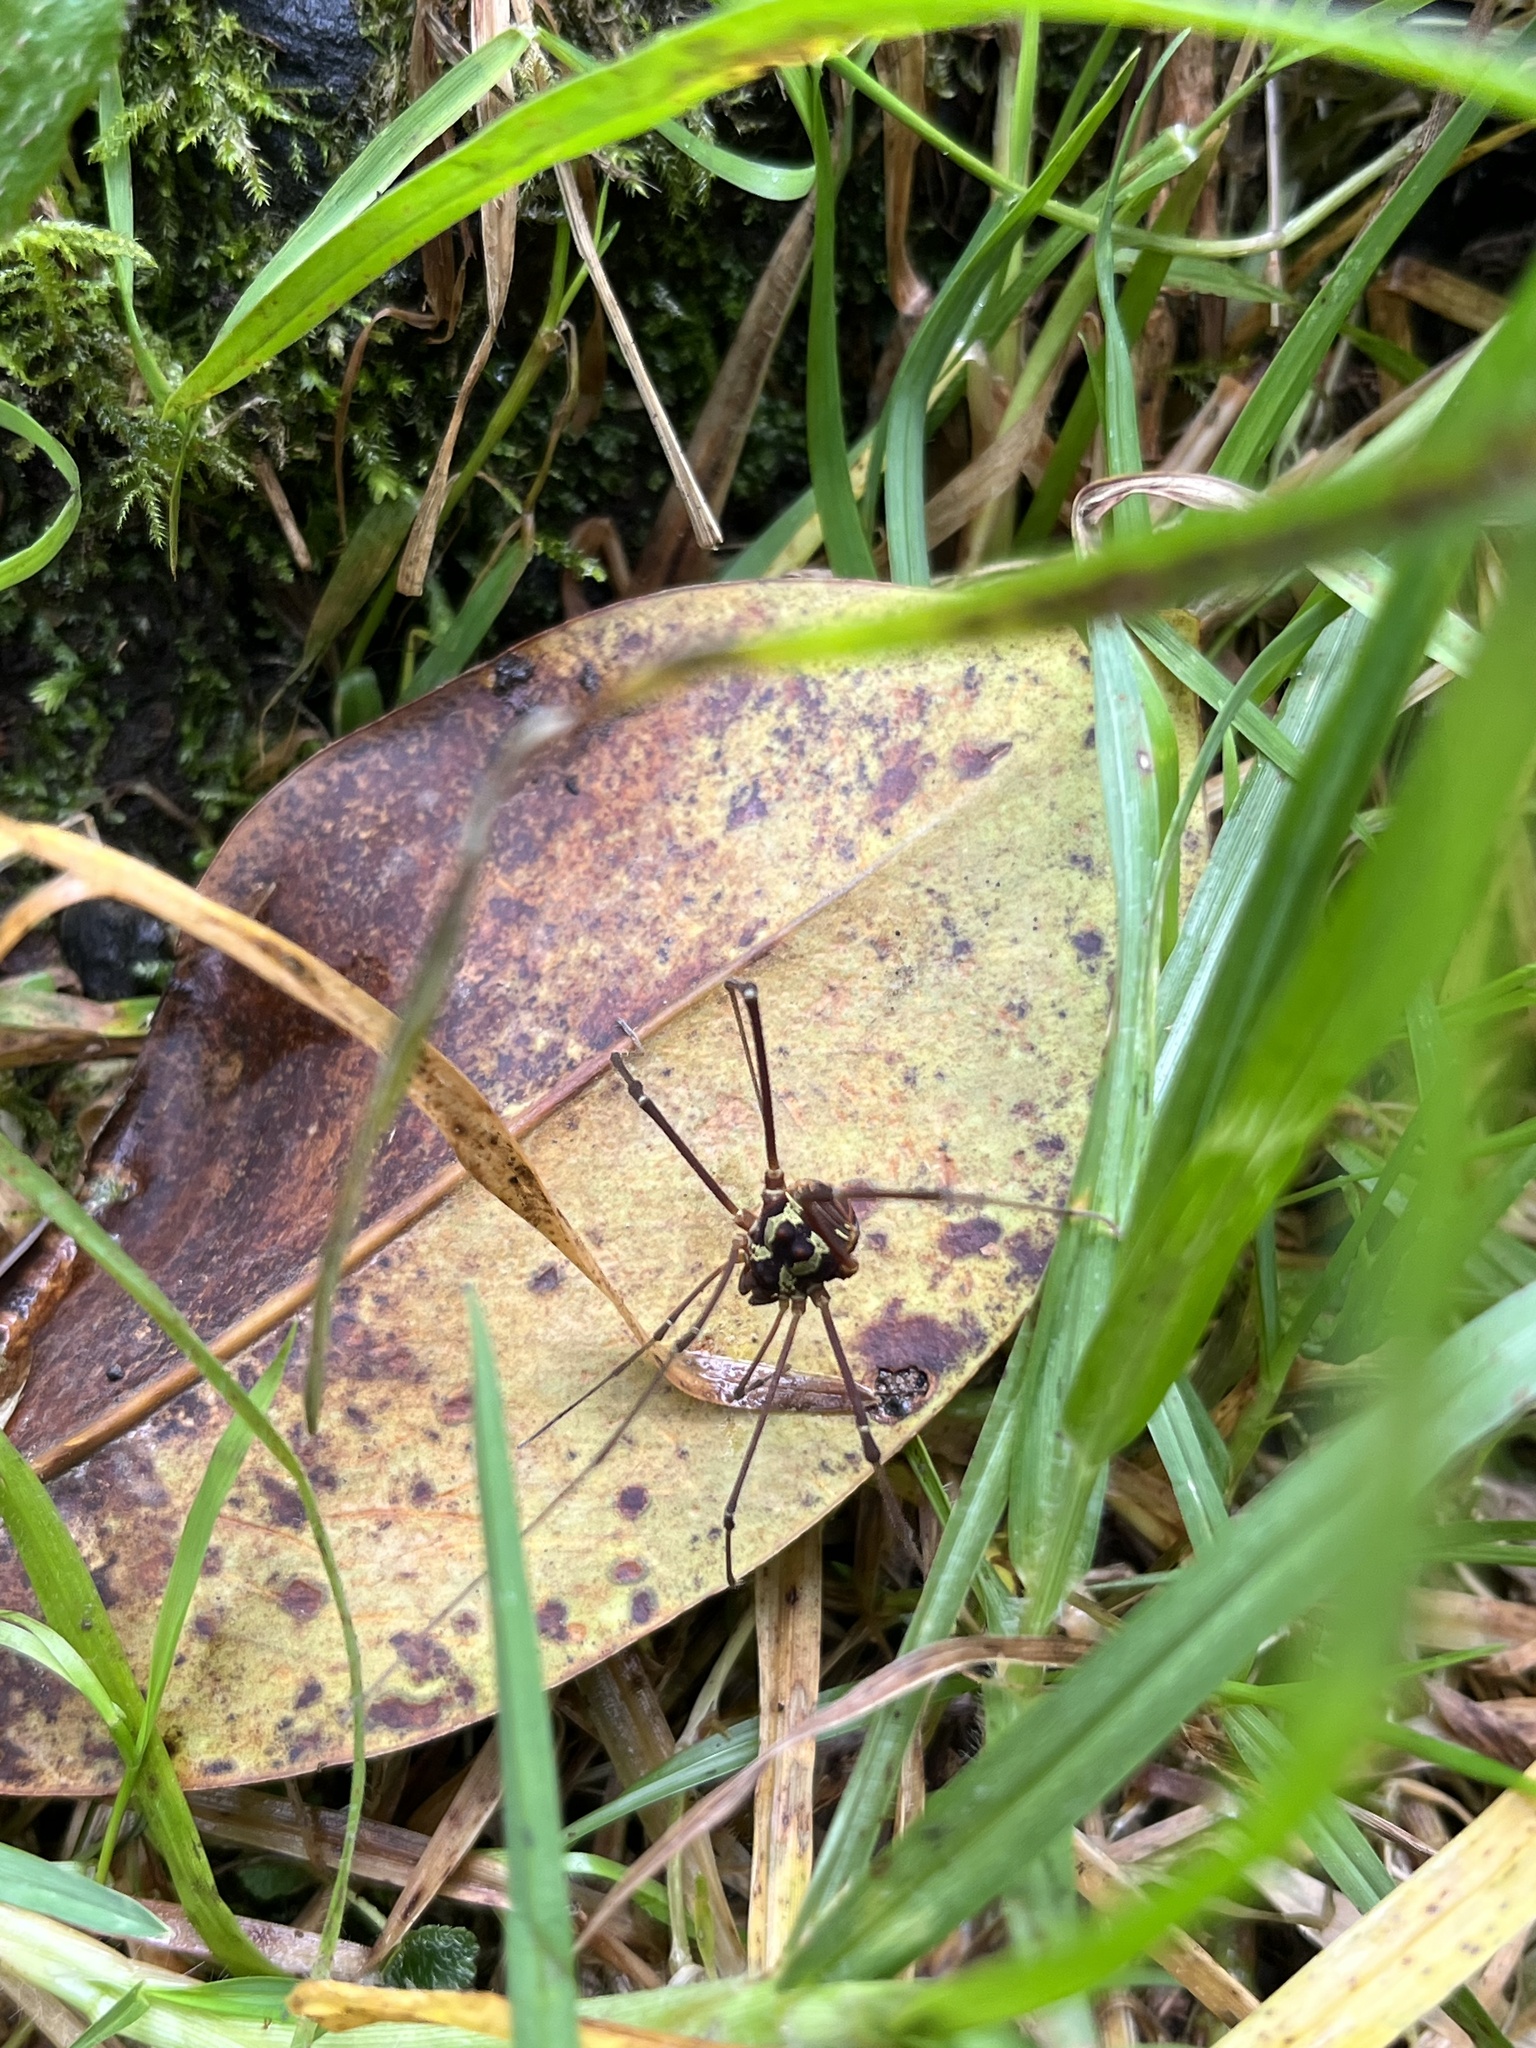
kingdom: Animalia
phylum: Arthropoda
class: Arachnida
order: Opiliones
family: Cosmetidae
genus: Meterginus
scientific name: Meterginus togatus
